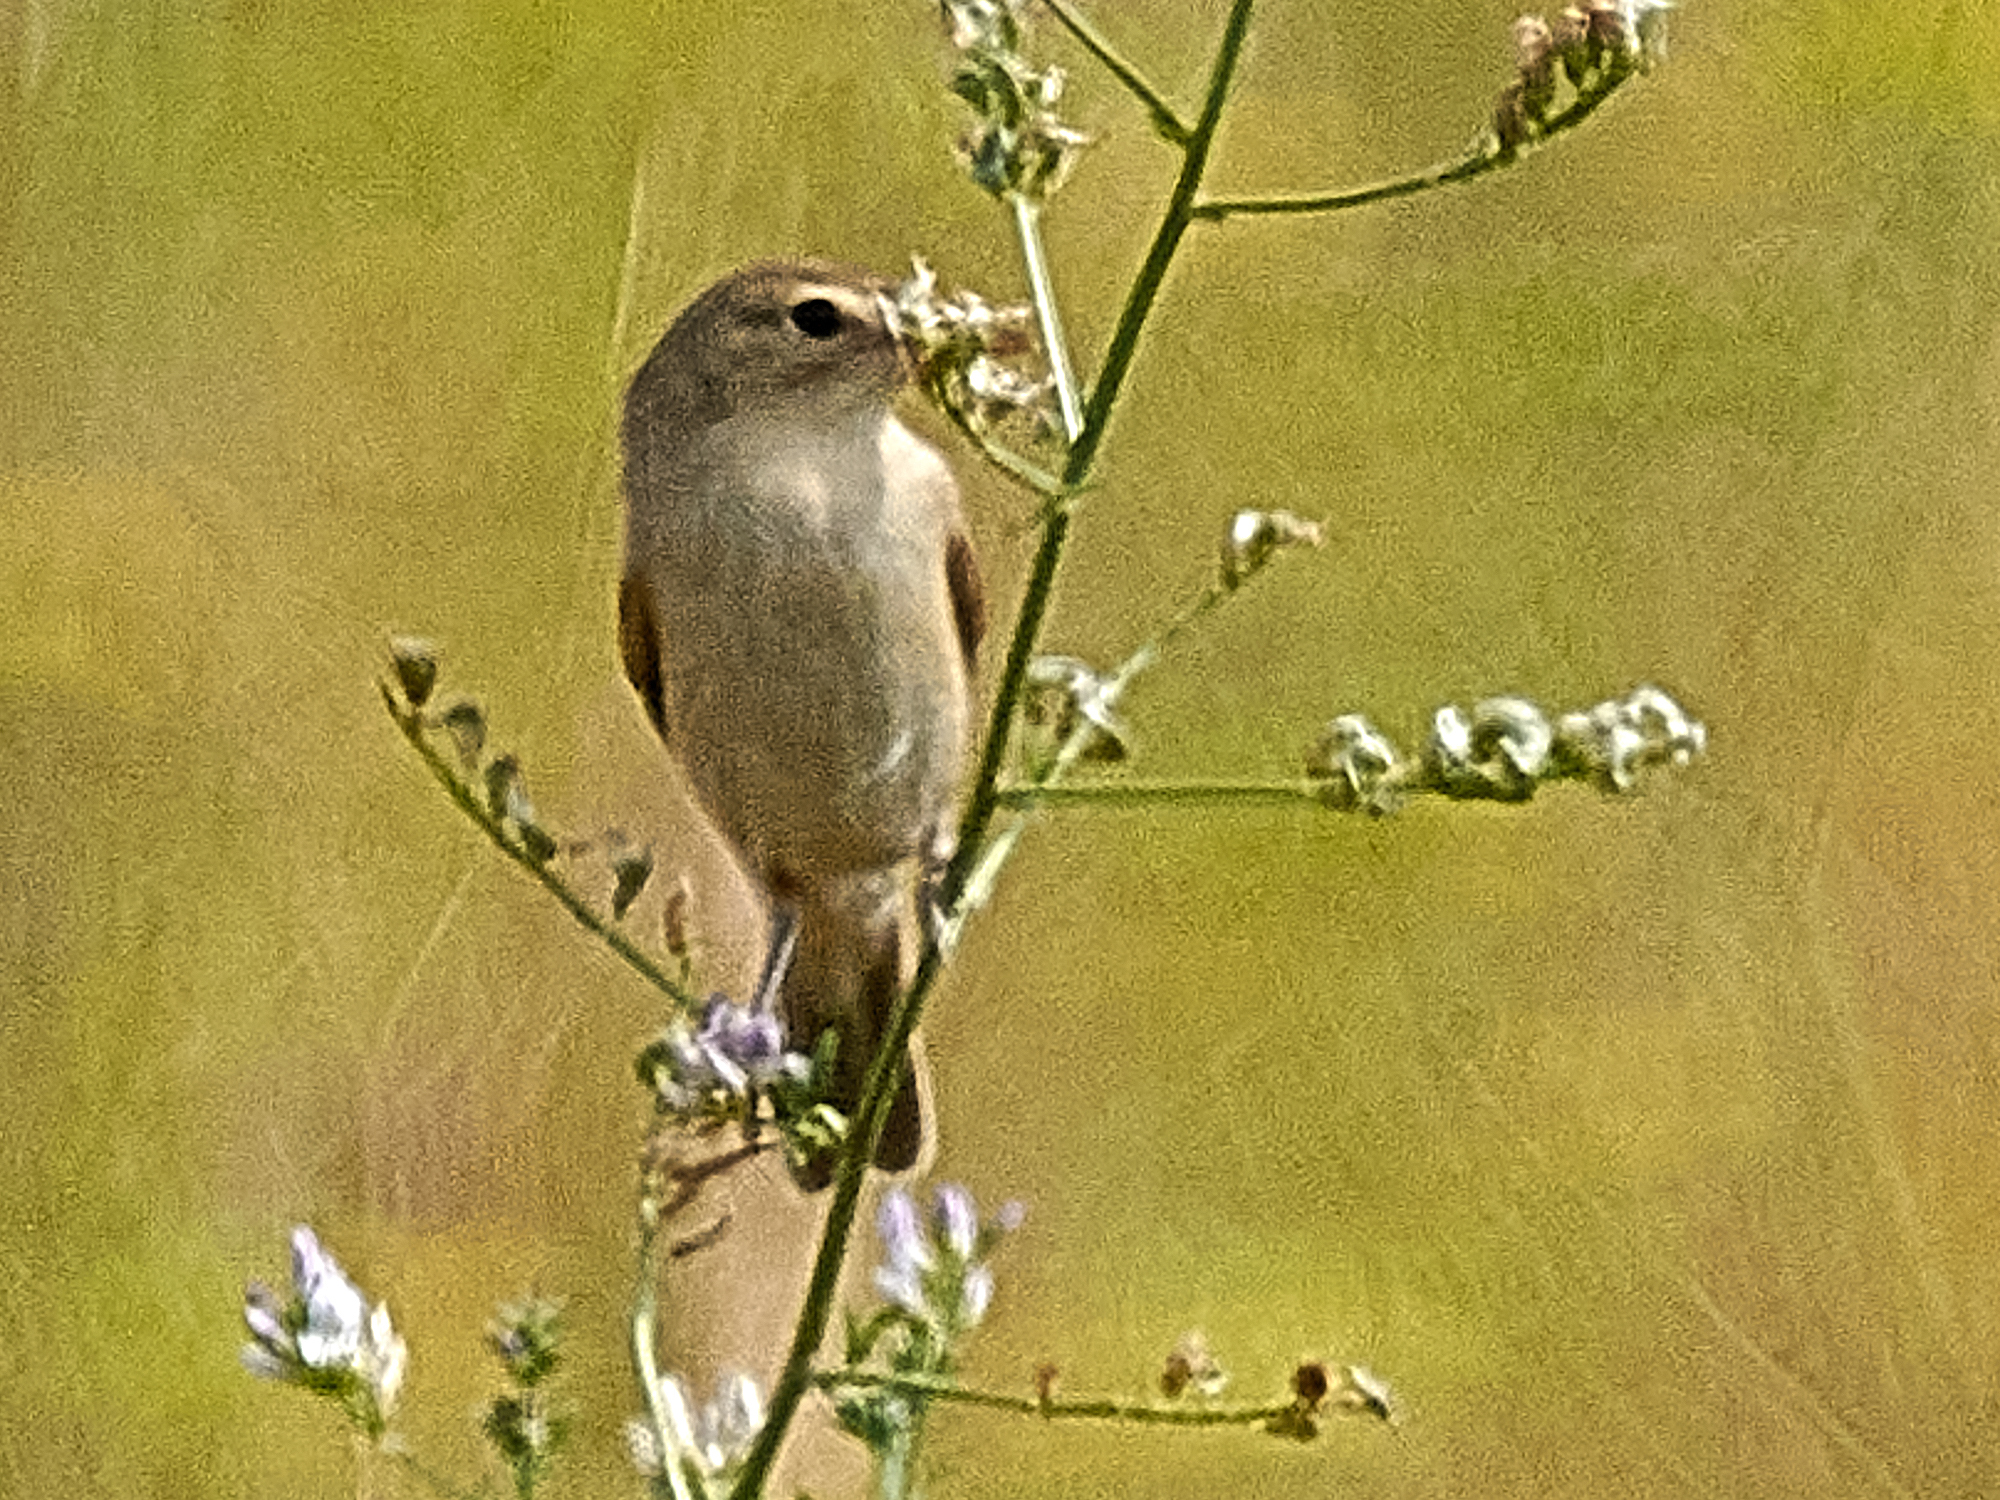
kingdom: Animalia
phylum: Chordata
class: Aves
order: Passeriformes
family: Acrocephalidae
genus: Iduna
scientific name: Iduna caligata
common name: Booted warbler
